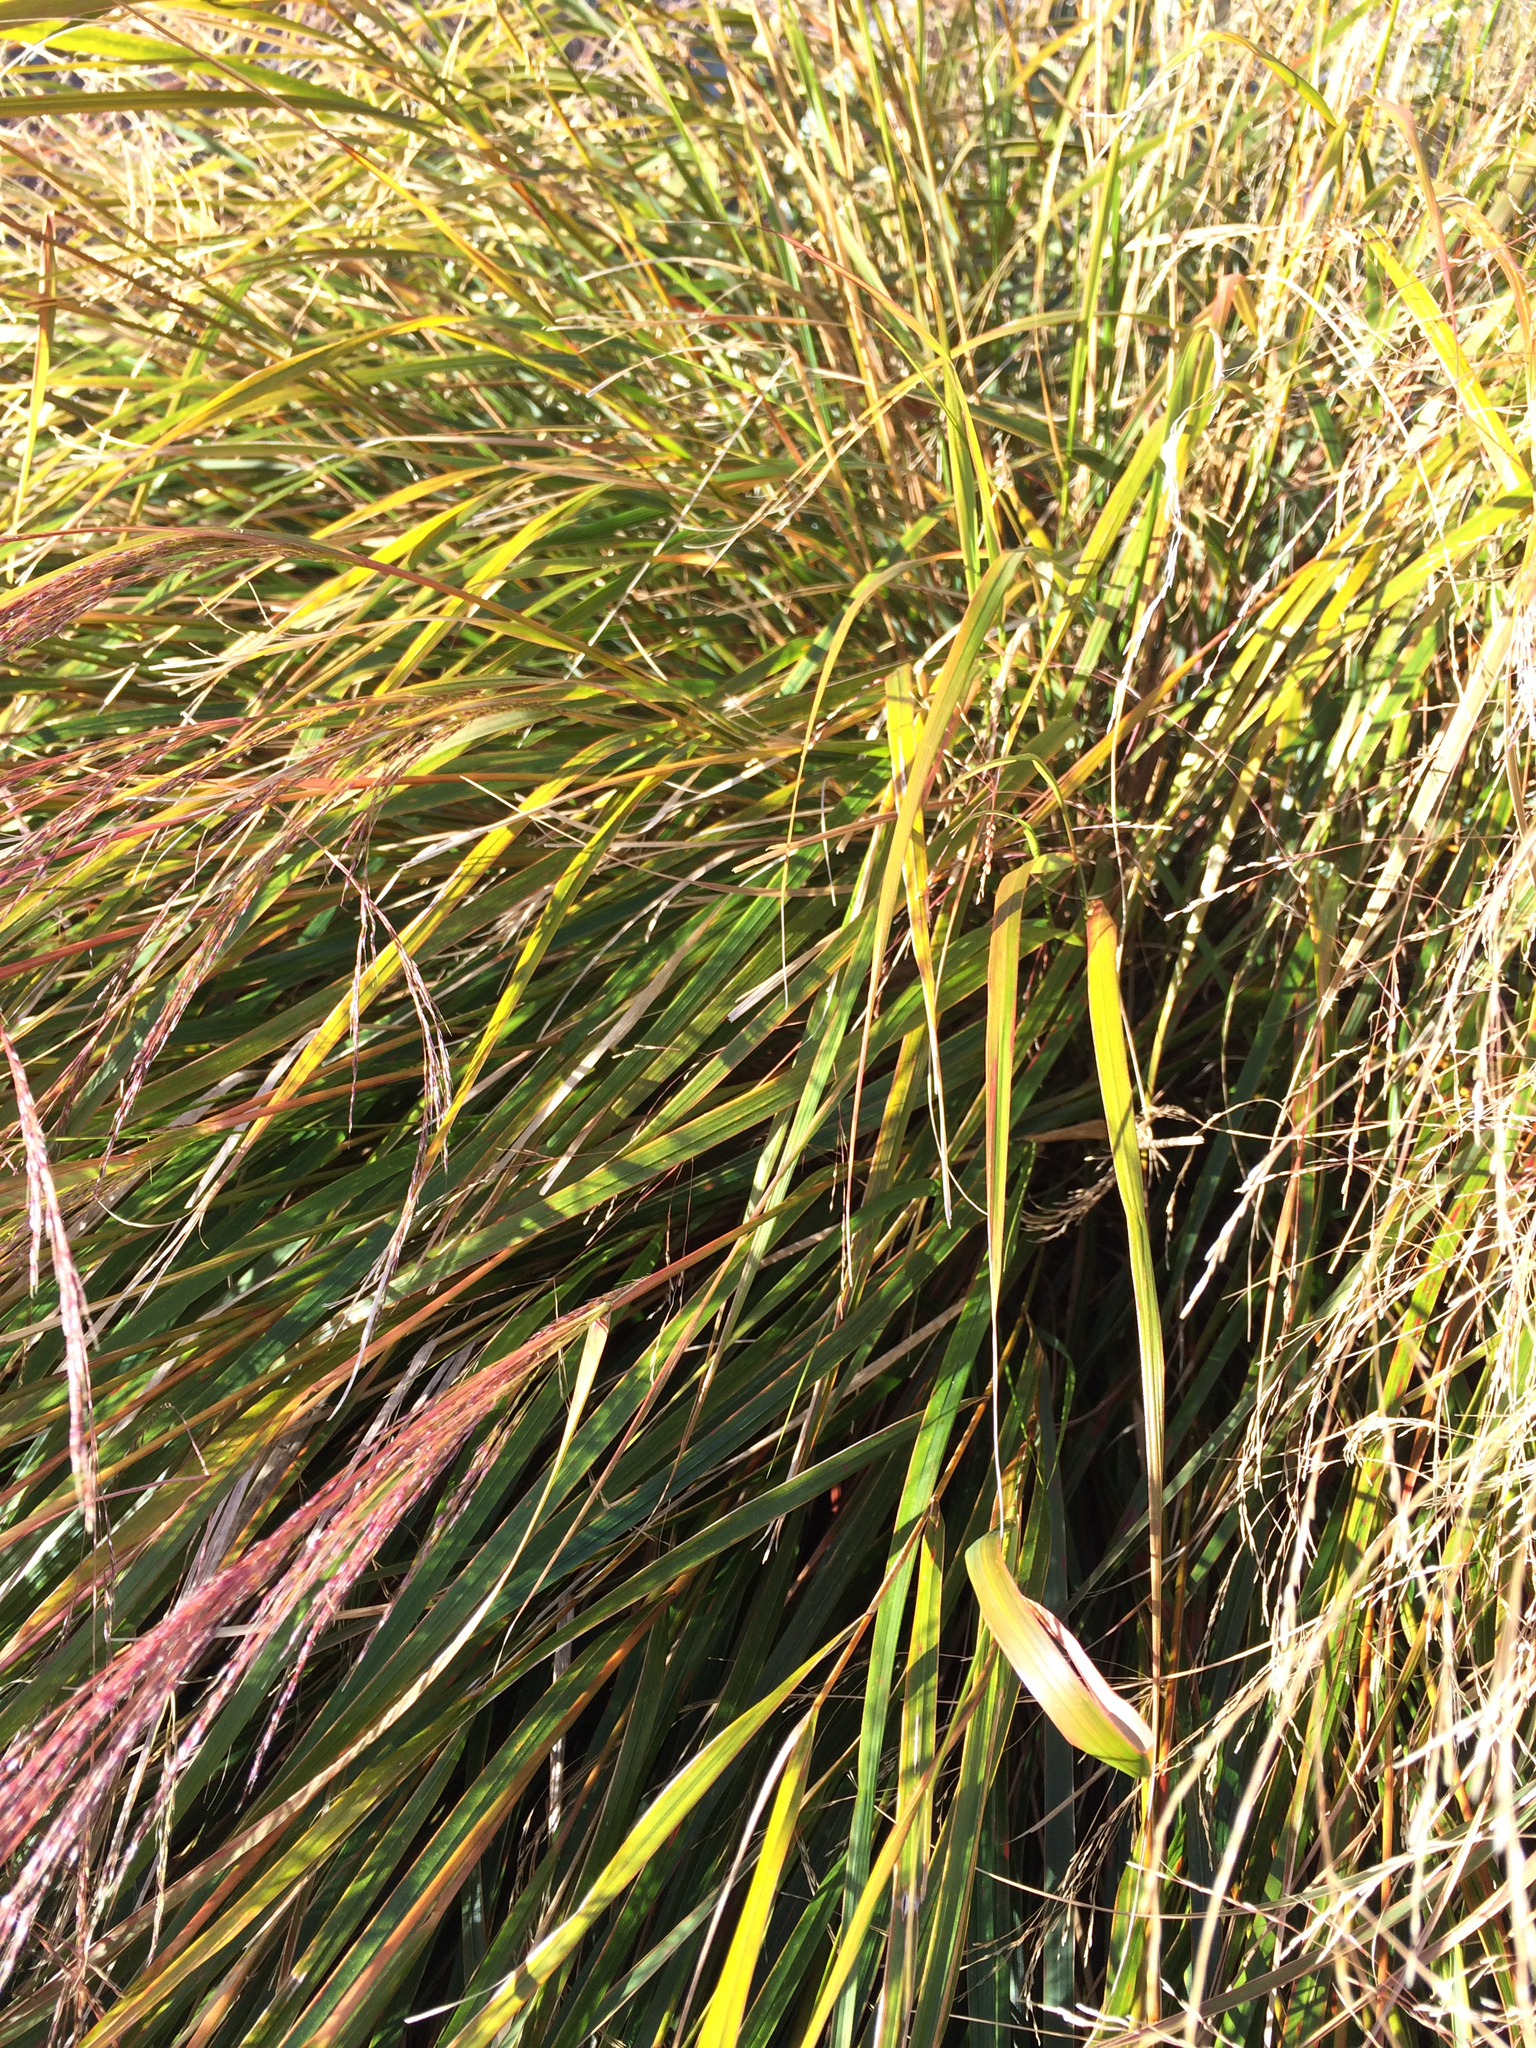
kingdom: Plantae
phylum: Tracheophyta
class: Liliopsida
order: Poales
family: Poaceae
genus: Anemanthele
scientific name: Anemanthele lessoniana
